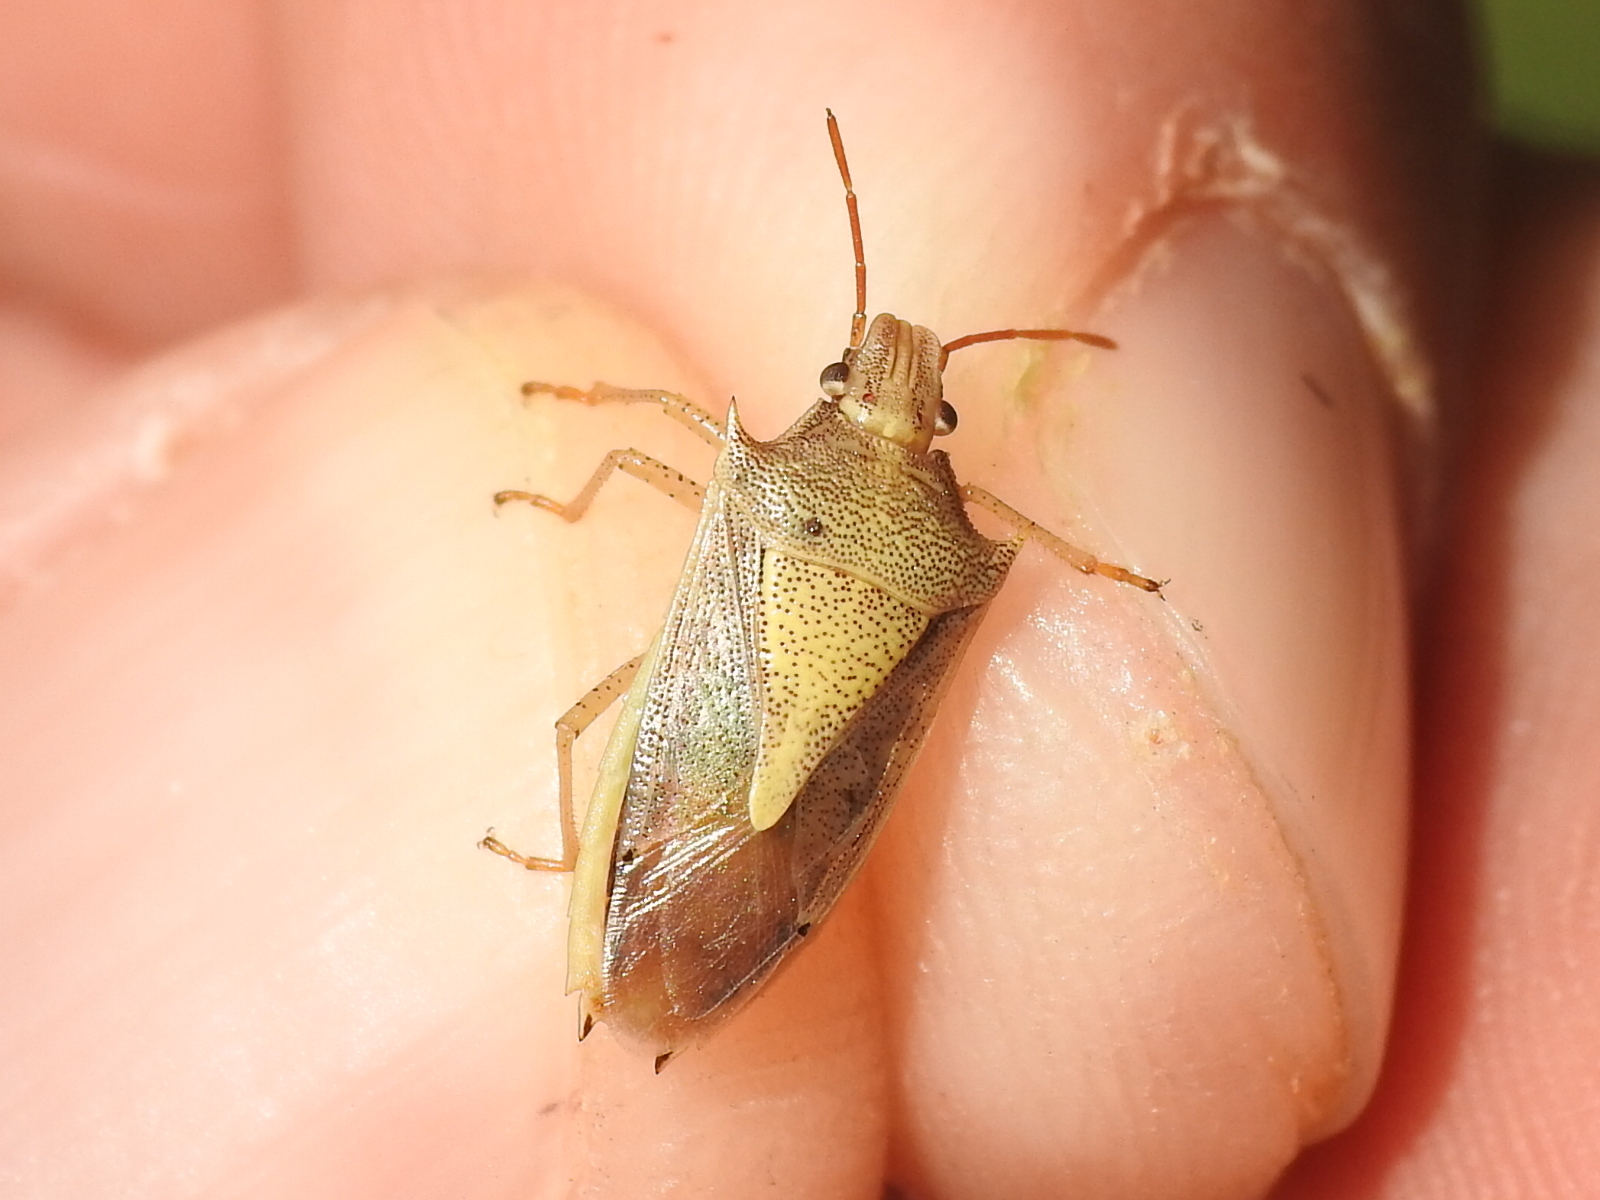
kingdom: Animalia
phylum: Arthropoda
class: Insecta
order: Hemiptera
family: Pentatomidae
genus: Oebalus
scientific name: Oebalus pugnax
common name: Rice stink bug
